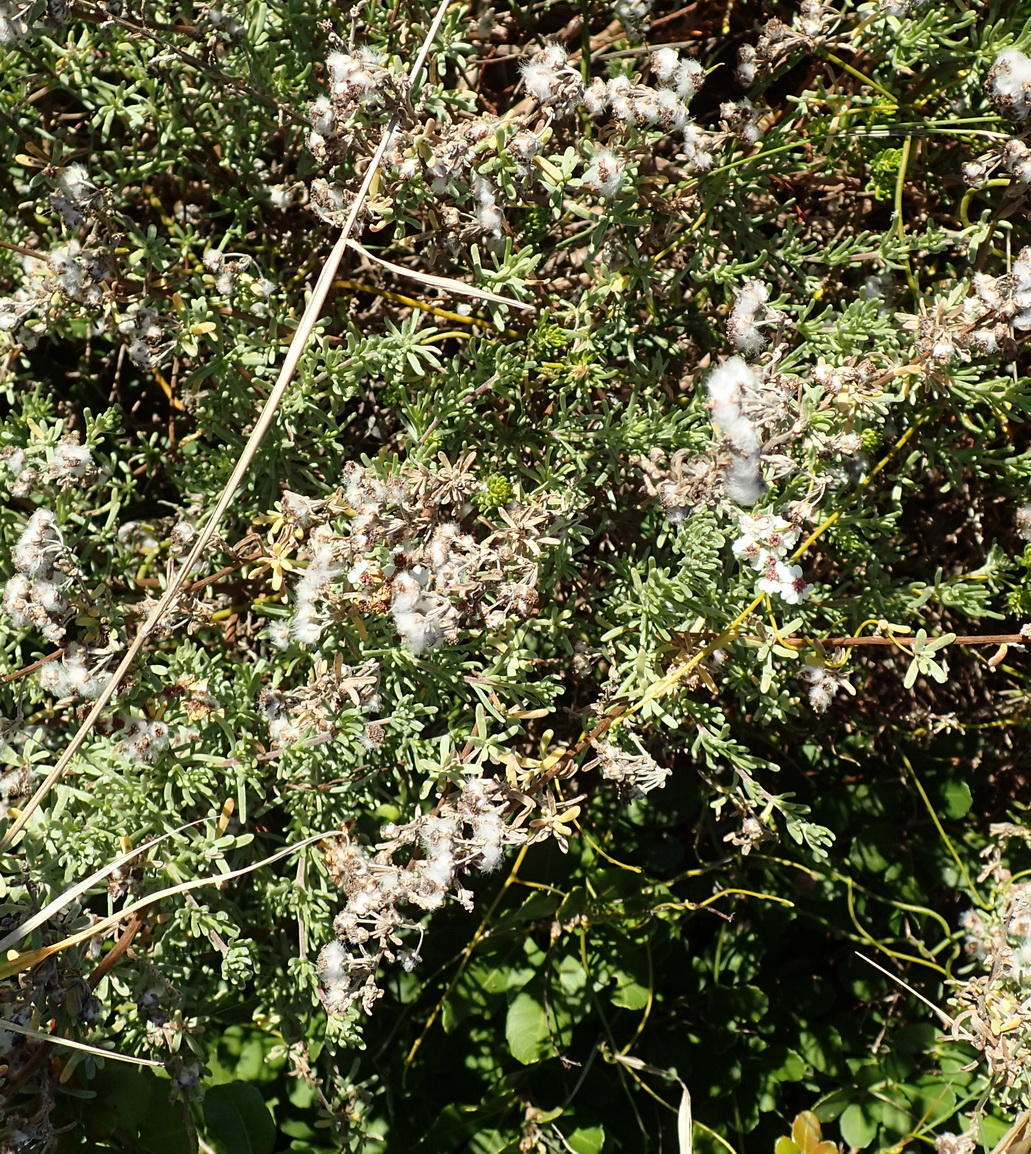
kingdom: Plantae
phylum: Tracheophyta
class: Magnoliopsida
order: Asterales
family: Asteraceae
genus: Eriocephalus
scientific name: Eriocephalus africanus
